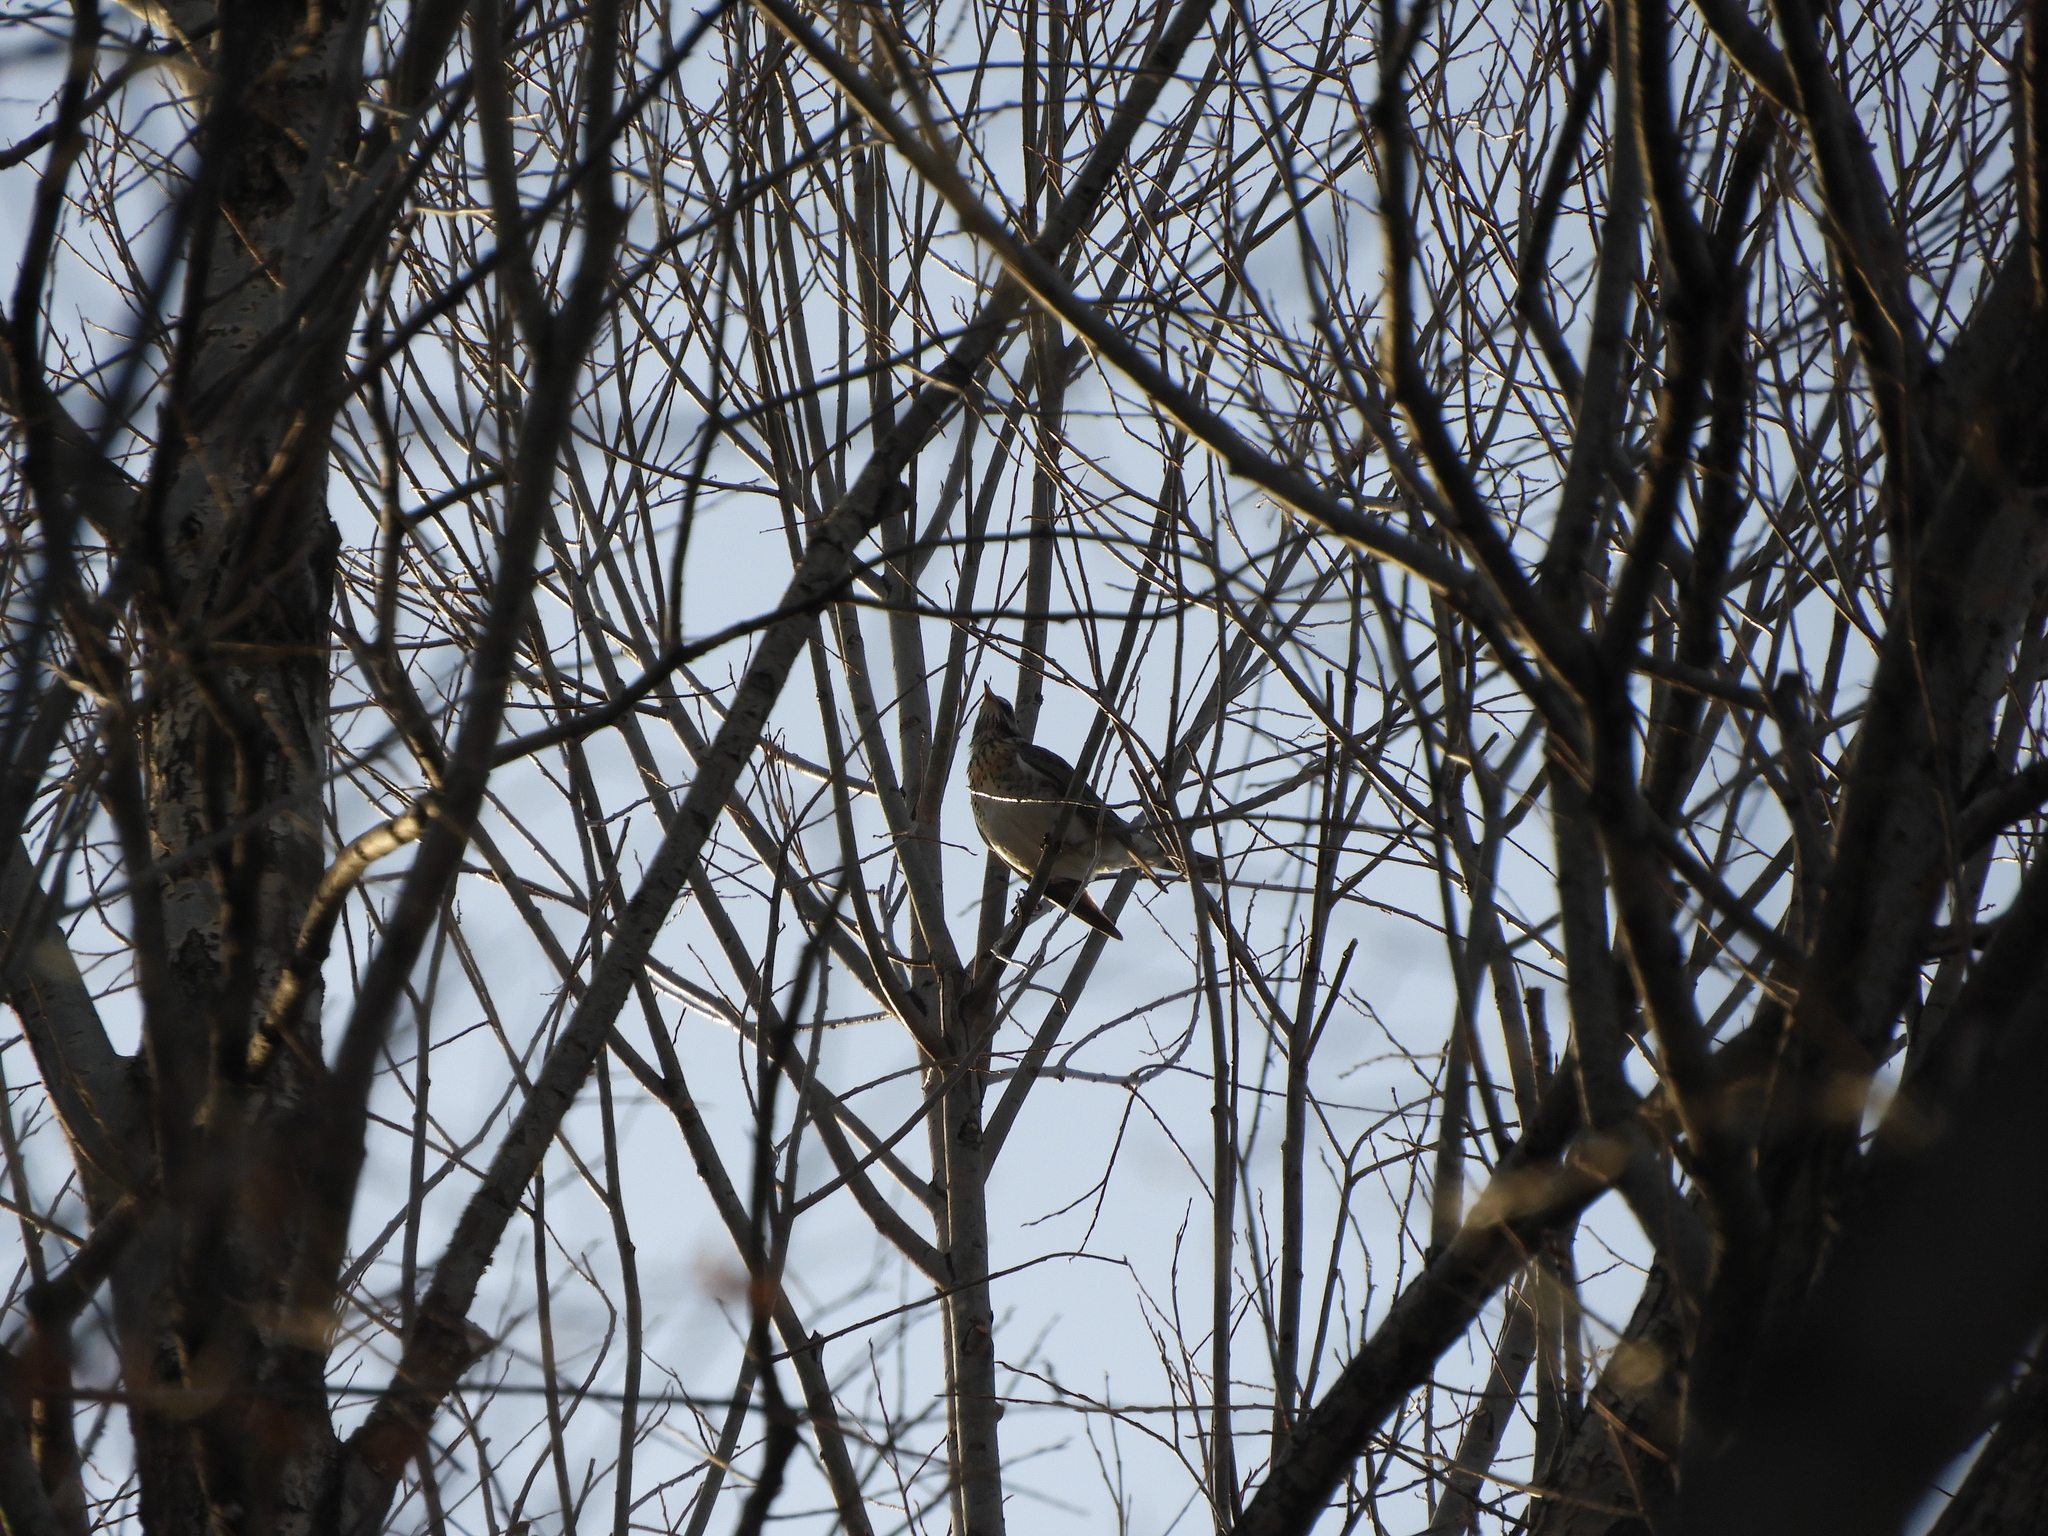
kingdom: Animalia
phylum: Chordata
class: Aves
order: Passeriformes
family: Turdidae
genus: Turdus
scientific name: Turdus pilaris
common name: Fieldfare
